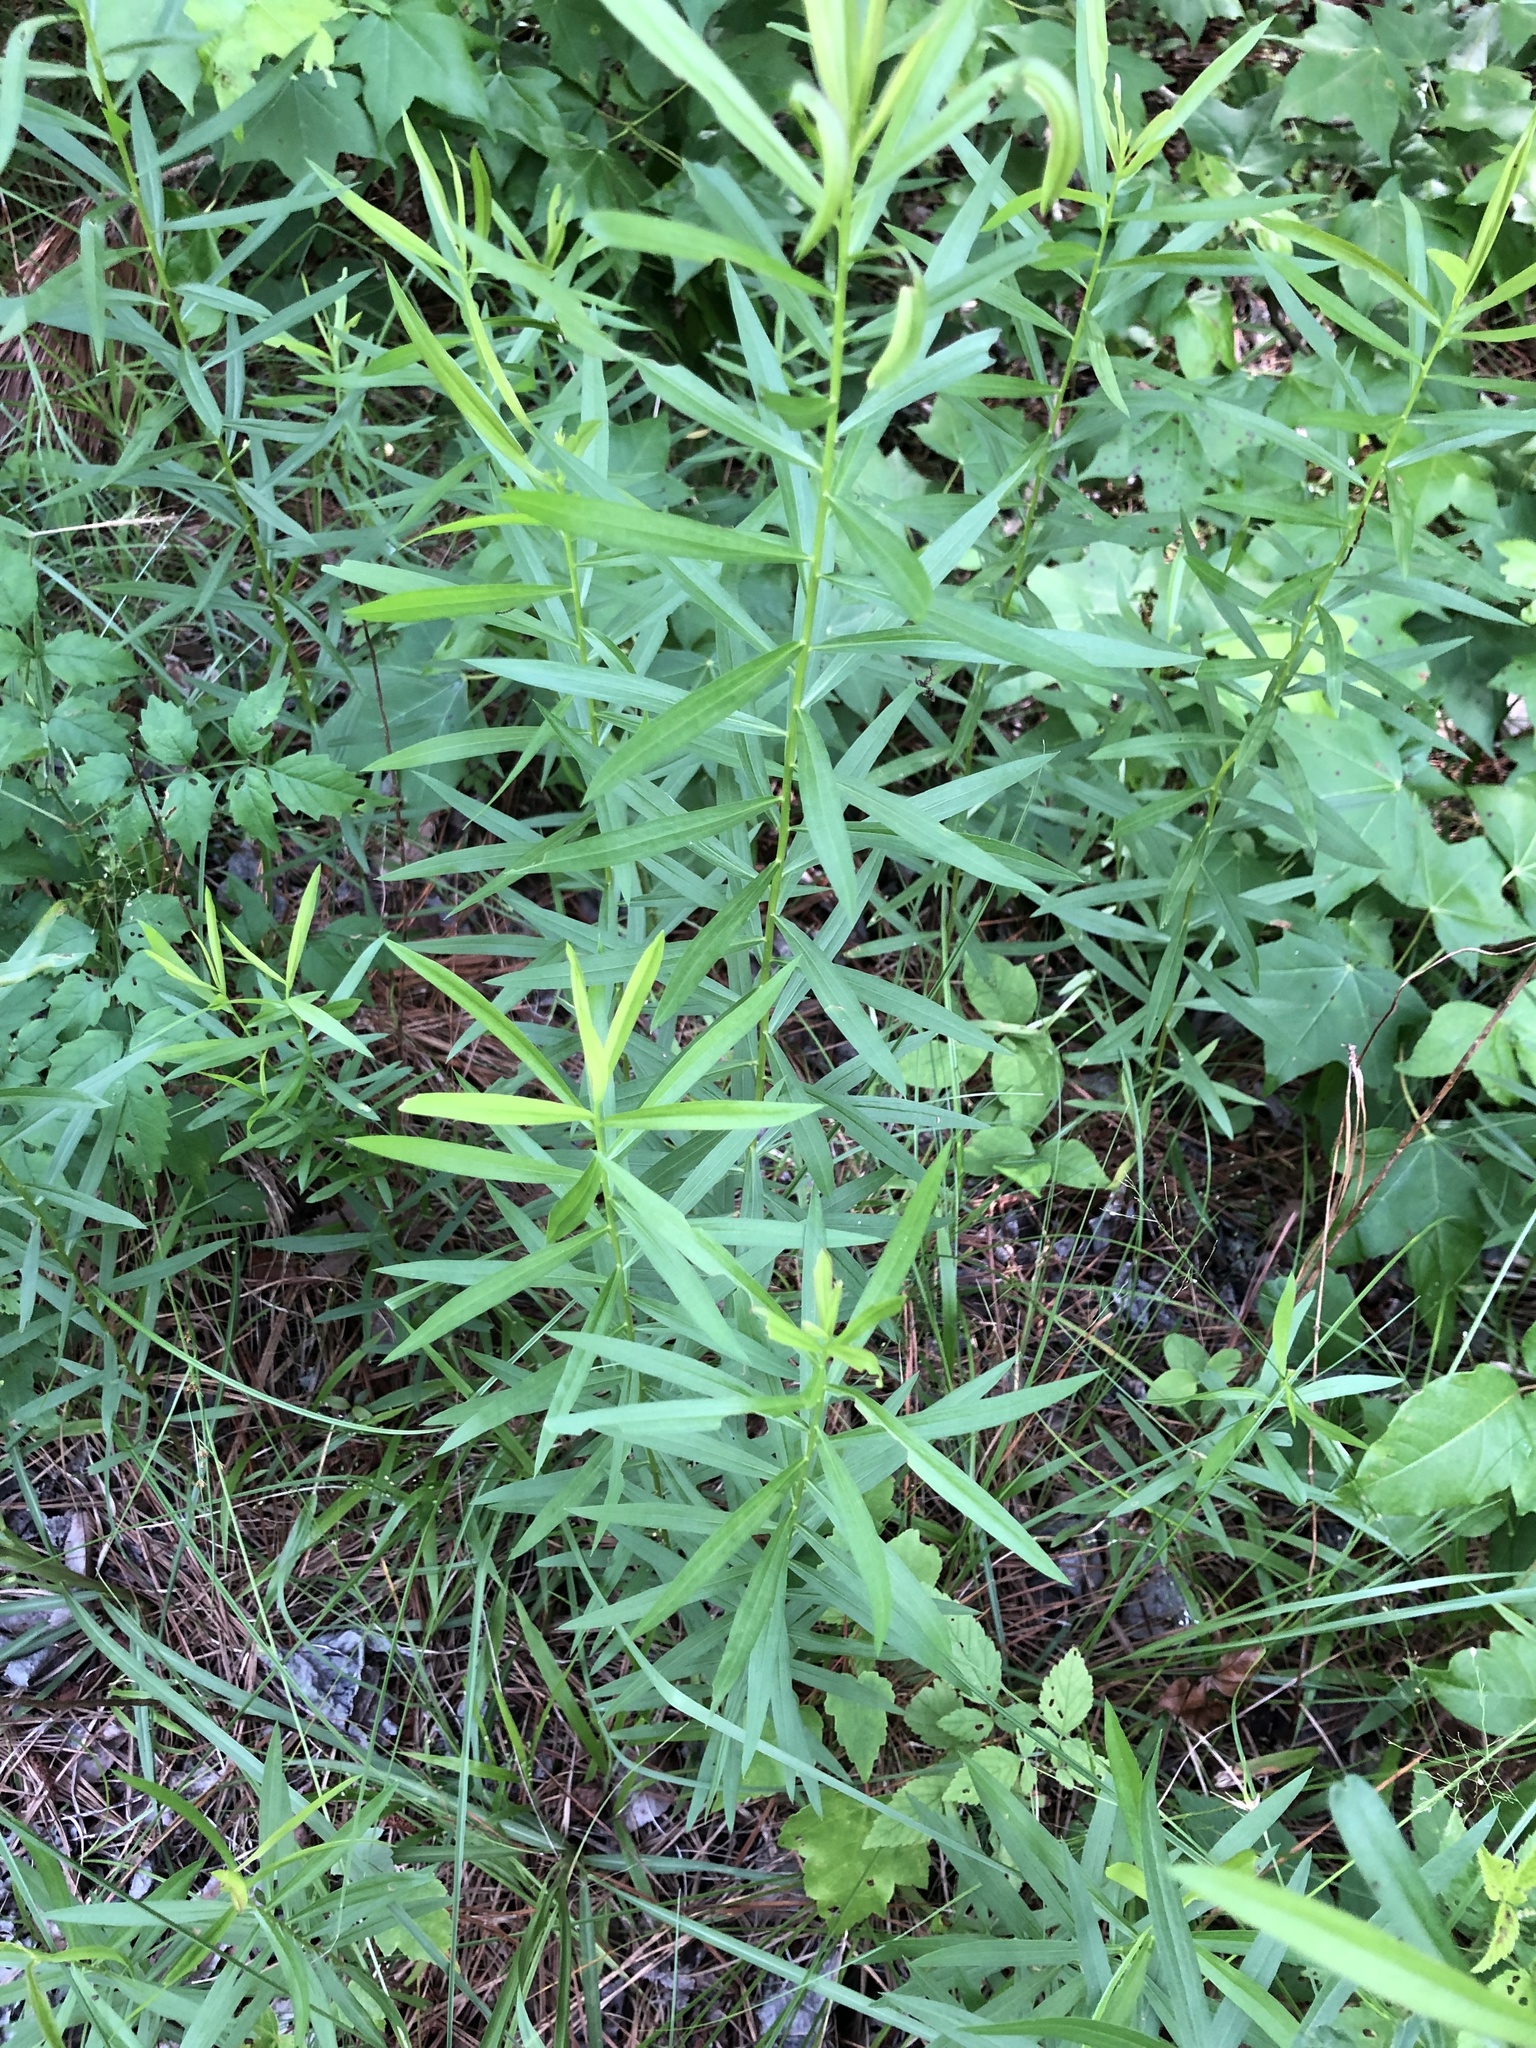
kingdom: Plantae
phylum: Tracheophyta
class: Magnoliopsida
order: Asterales
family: Asteraceae
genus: Euthamia
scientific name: Euthamia leptocephala
